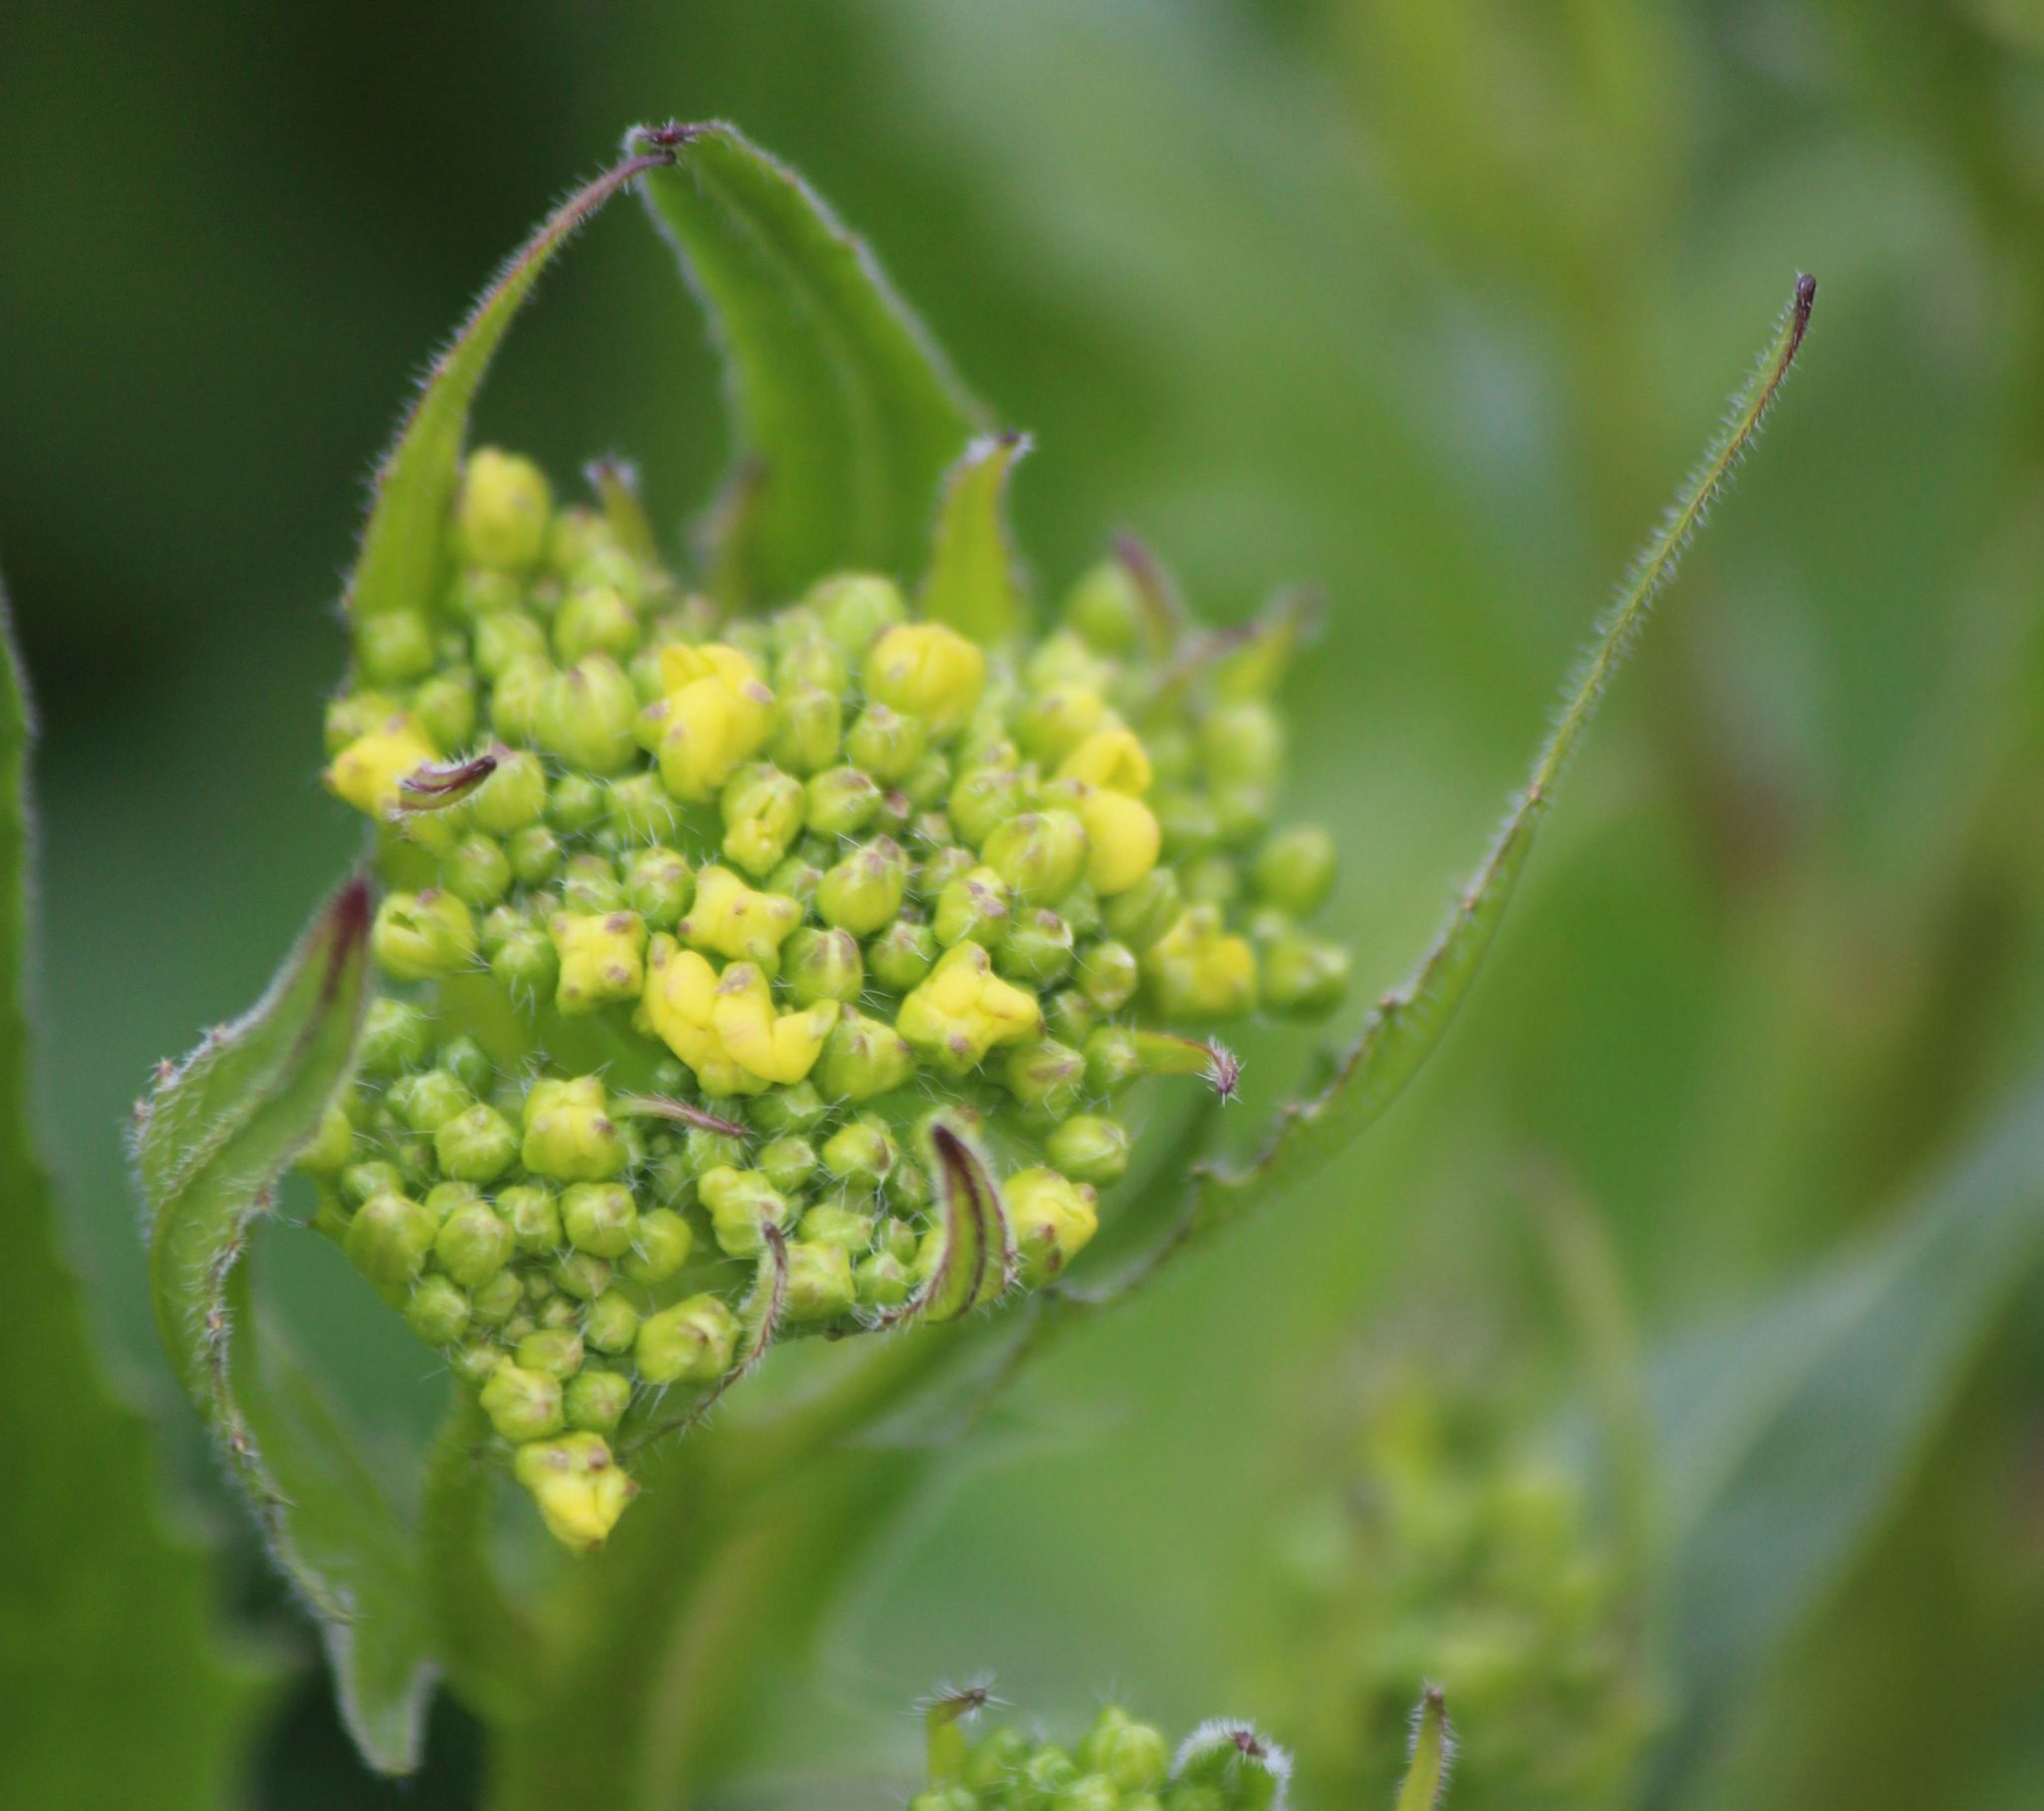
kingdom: Plantae
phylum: Tracheophyta
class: Magnoliopsida
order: Brassicales
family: Brassicaceae
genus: Bunias
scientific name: Bunias orientalis
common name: Warty-cabbage
